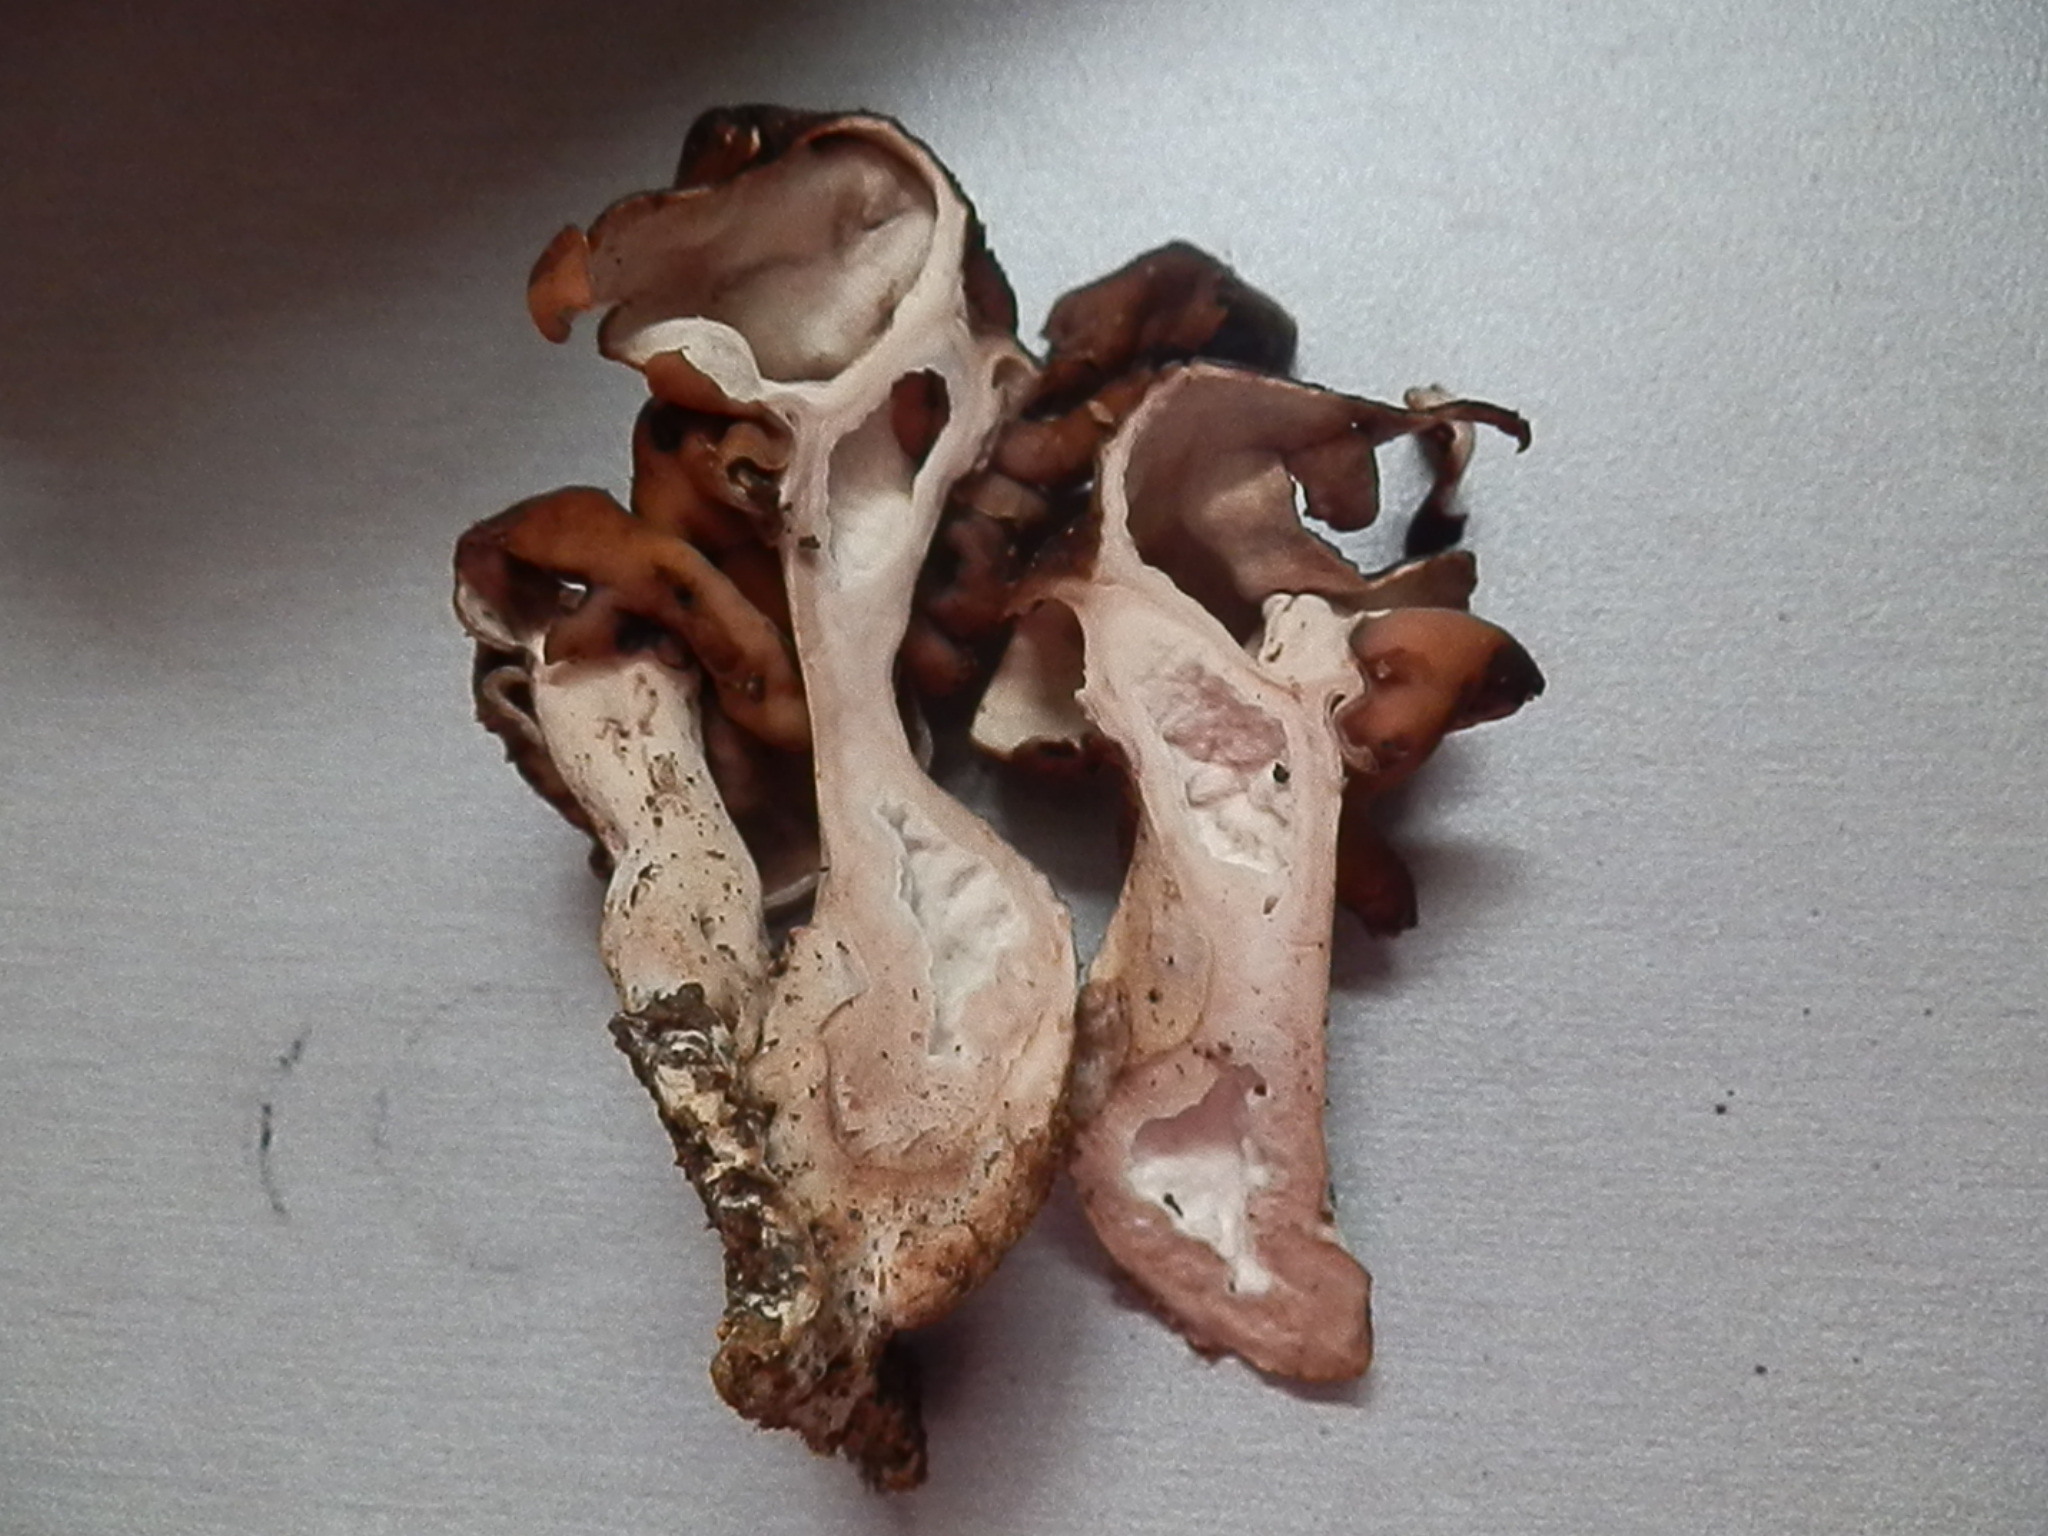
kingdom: Fungi
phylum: Ascomycota
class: Pezizomycetes
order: Pezizales
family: Discinaceae
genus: Gyromitra
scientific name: Gyromitra infula
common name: Pouched false morel
